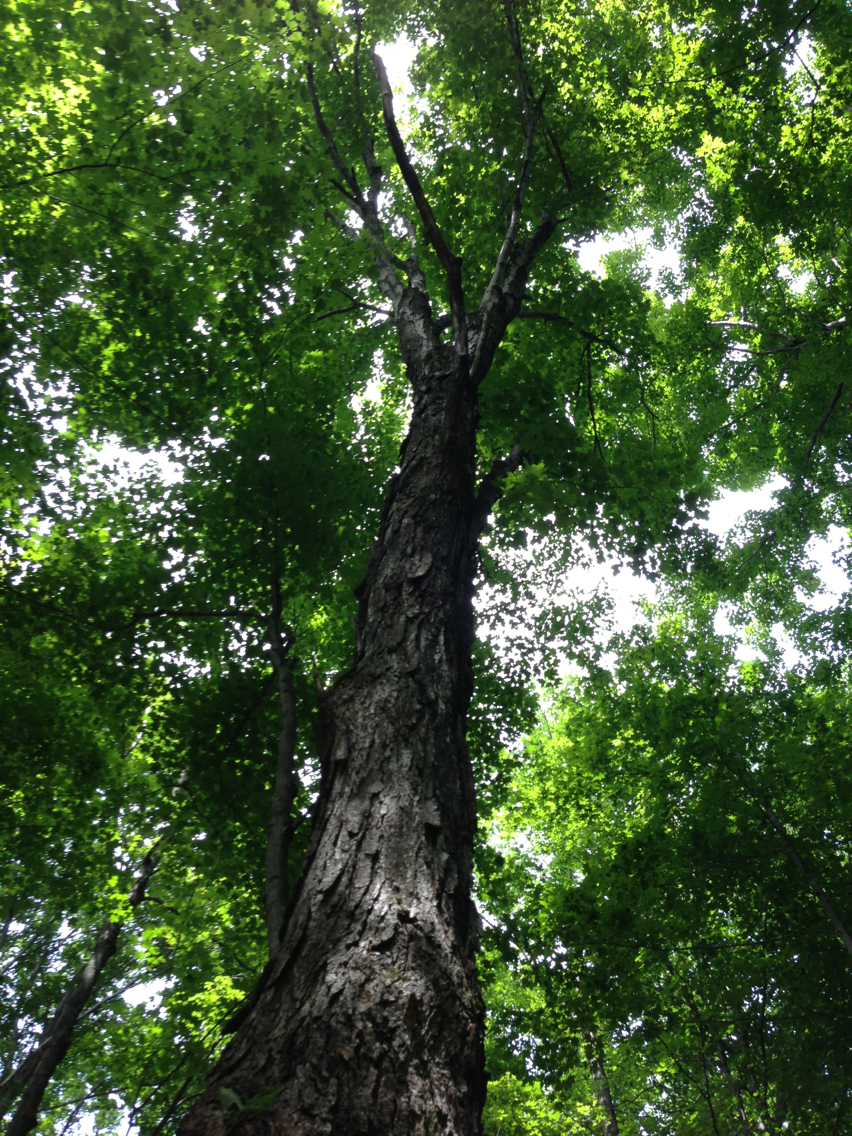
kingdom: Plantae
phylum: Tracheophyta
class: Magnoliopsida
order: Sapindales
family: Sapindaceae
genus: Acer
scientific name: Acer saccharum
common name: Sugar maple
